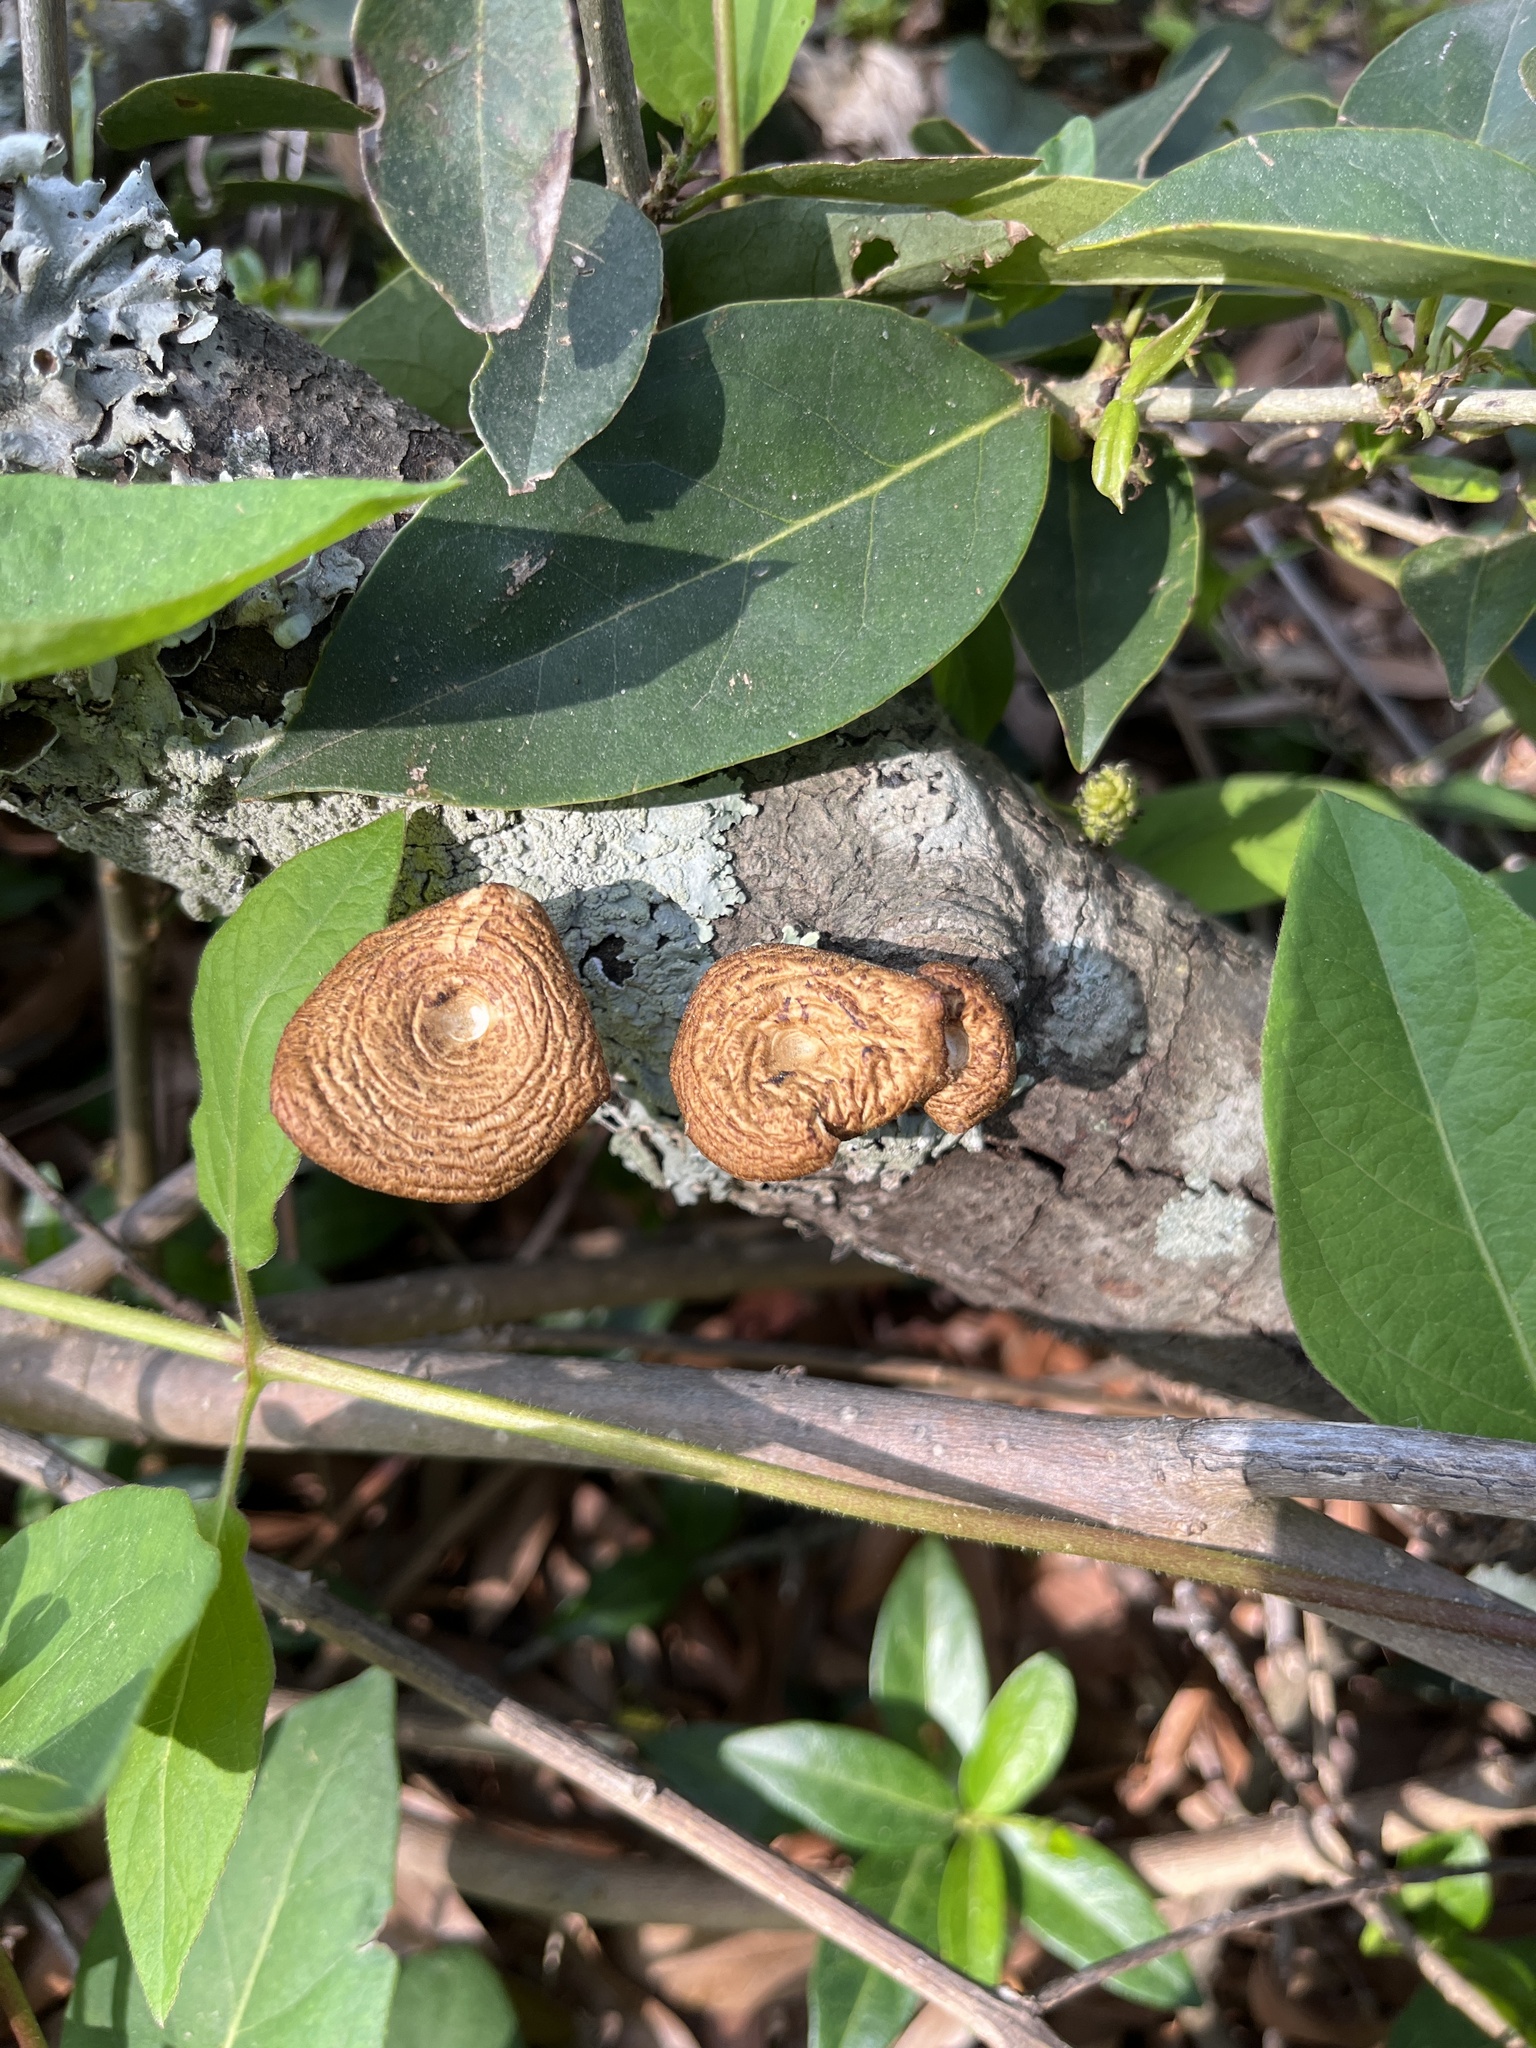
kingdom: Fungi
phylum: Basidiomycota
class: Agaricomycetes
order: Polyporales
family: Polyporaceae
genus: Lentinus
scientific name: Lentinus arcularius
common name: Spring polypore
